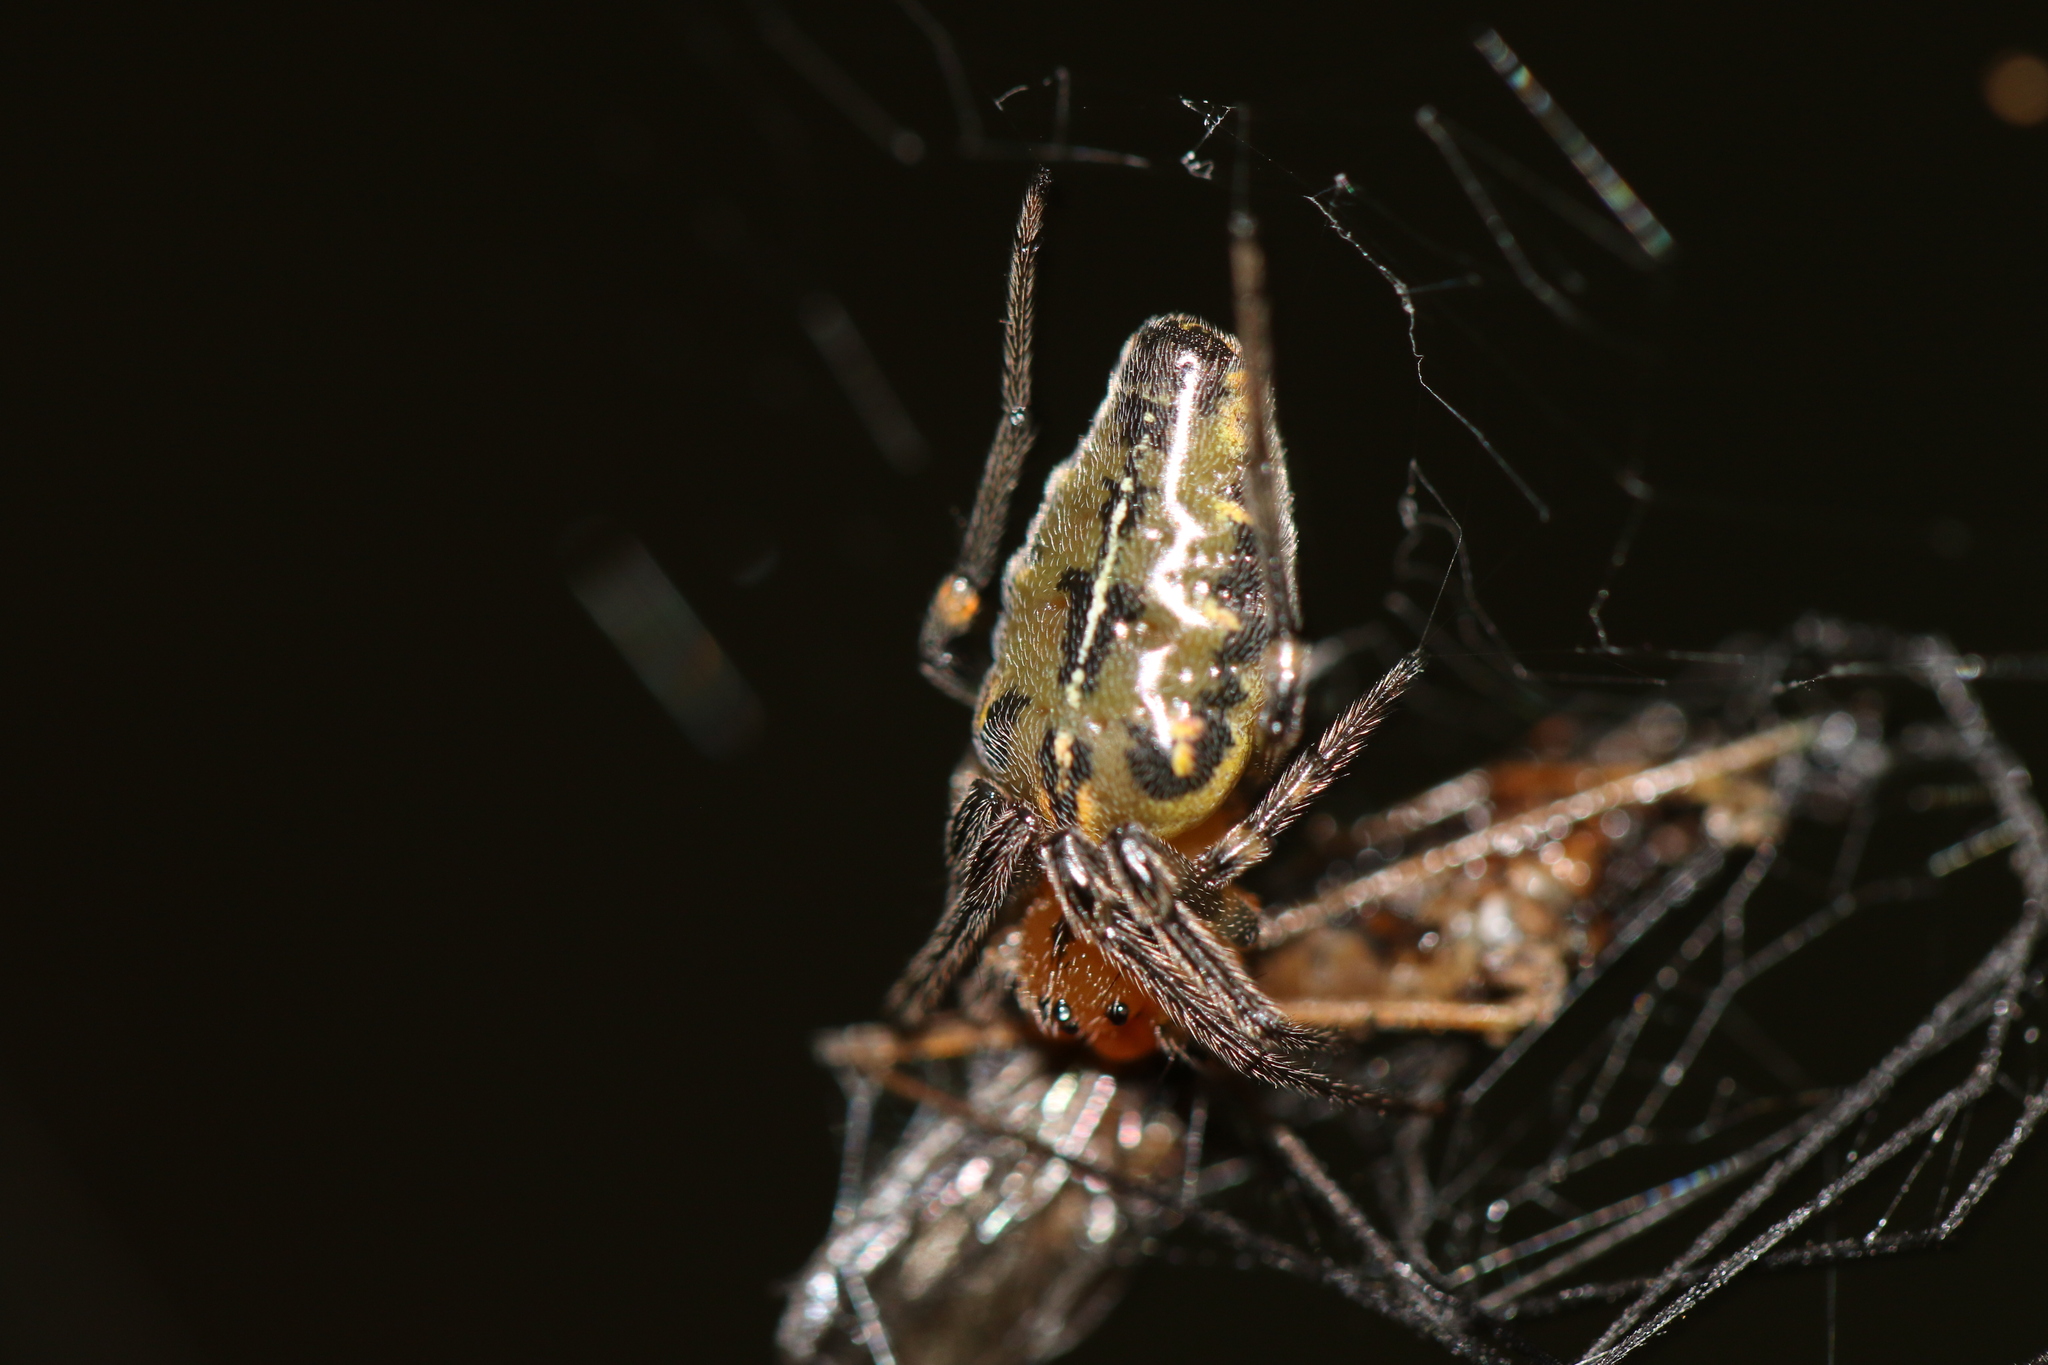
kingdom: Animalia
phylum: Arthropoda
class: Arachnida
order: Araneae
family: Araneidae
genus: Alpaida
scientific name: Alpaida scriba
